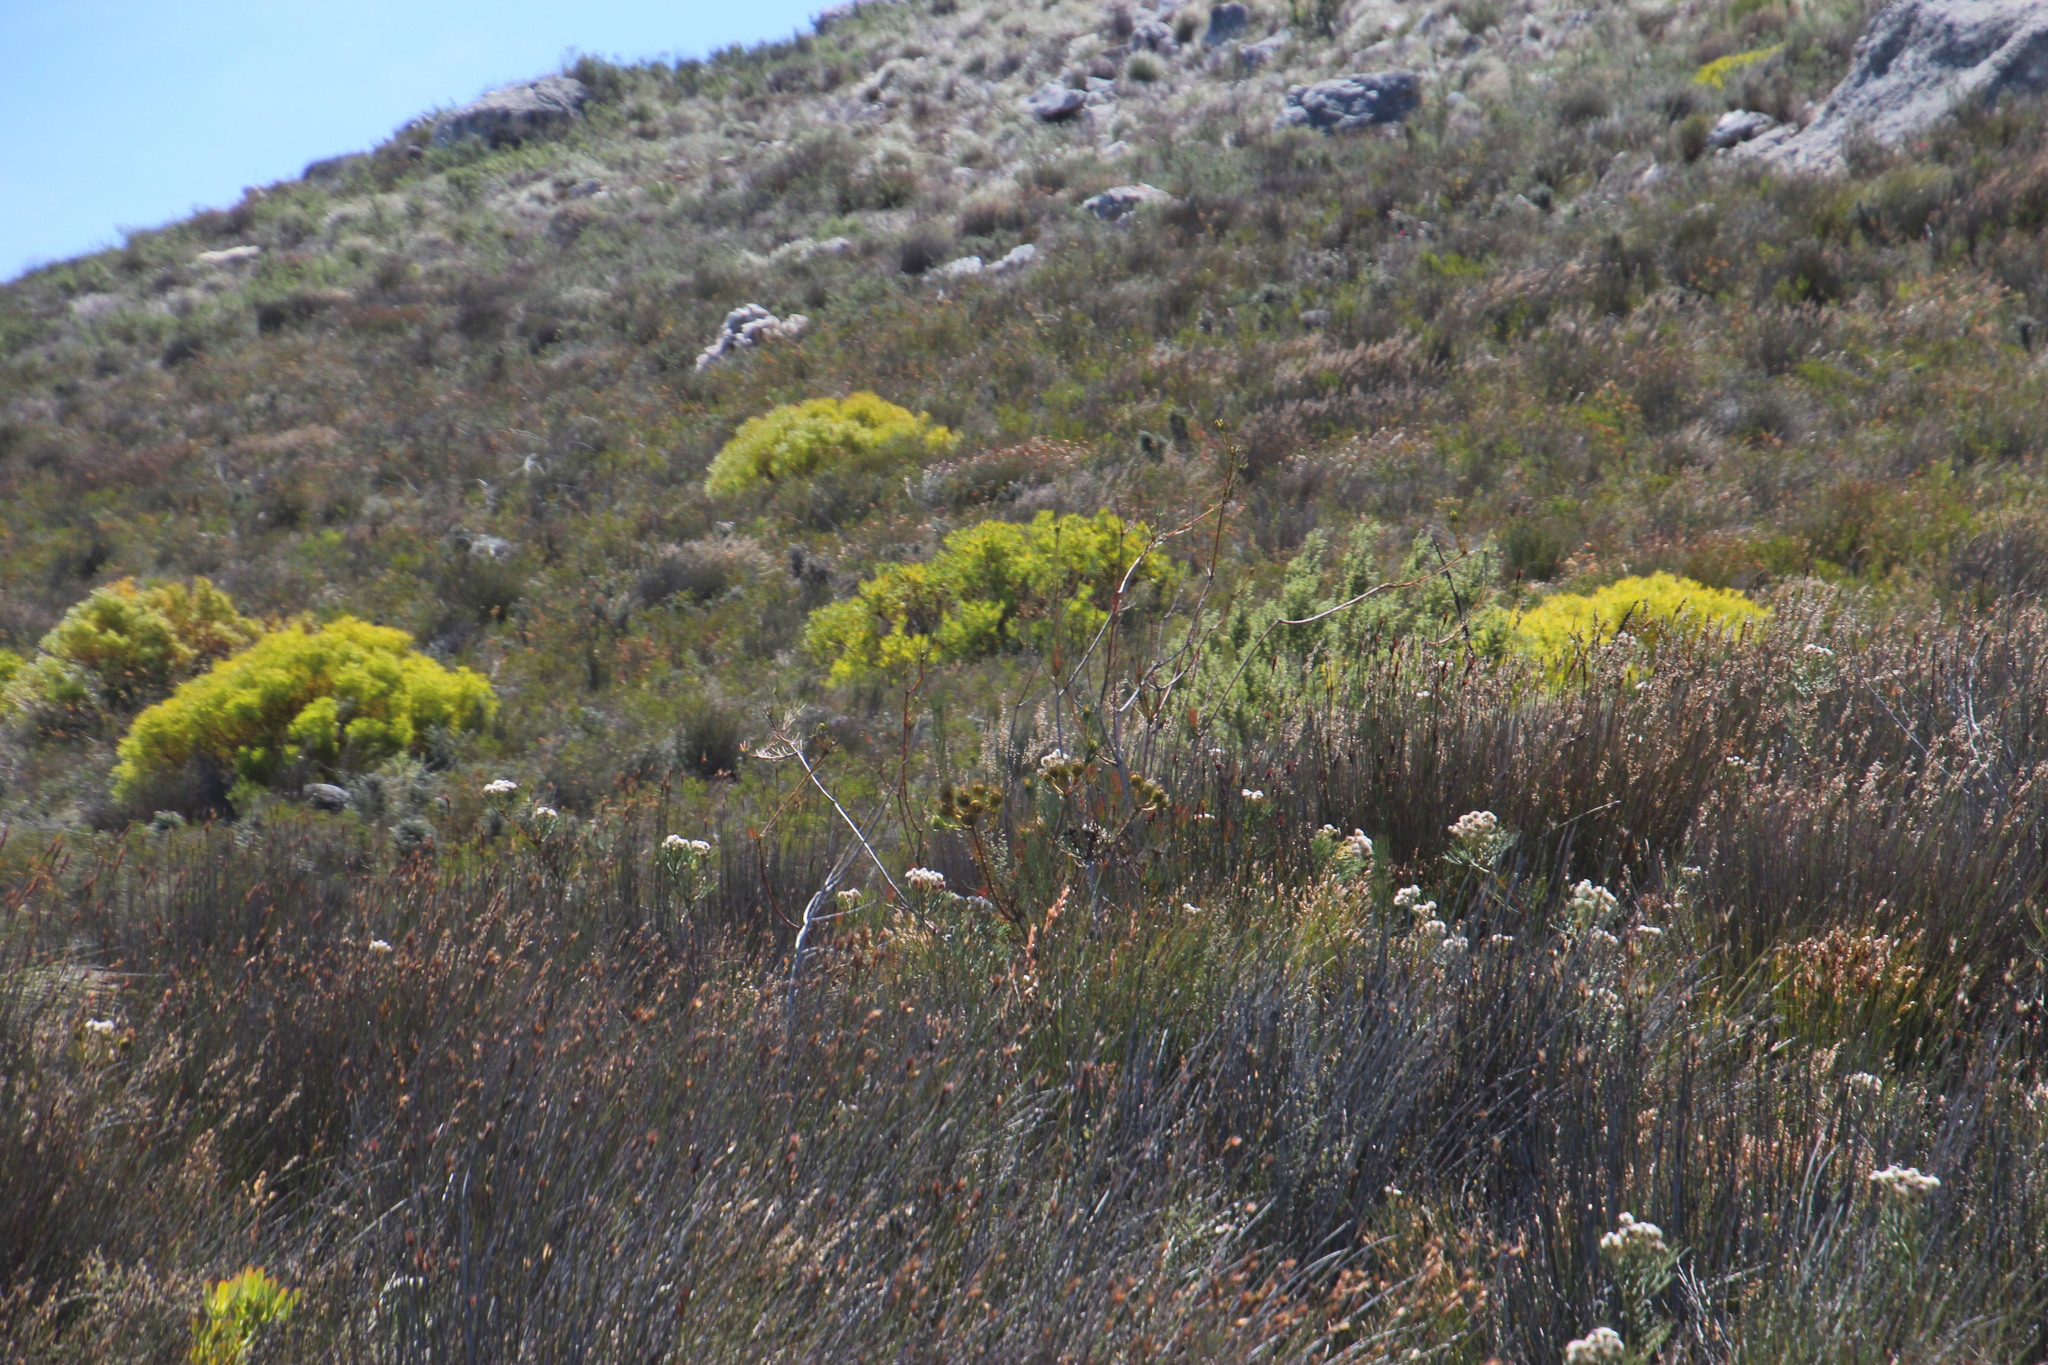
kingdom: Plantae
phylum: Tracheophyta
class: Magnoliopsida
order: Proteales
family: Proteaceae
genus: Aulax
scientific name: Aulax pallasia
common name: Needle-leaf featherbush
